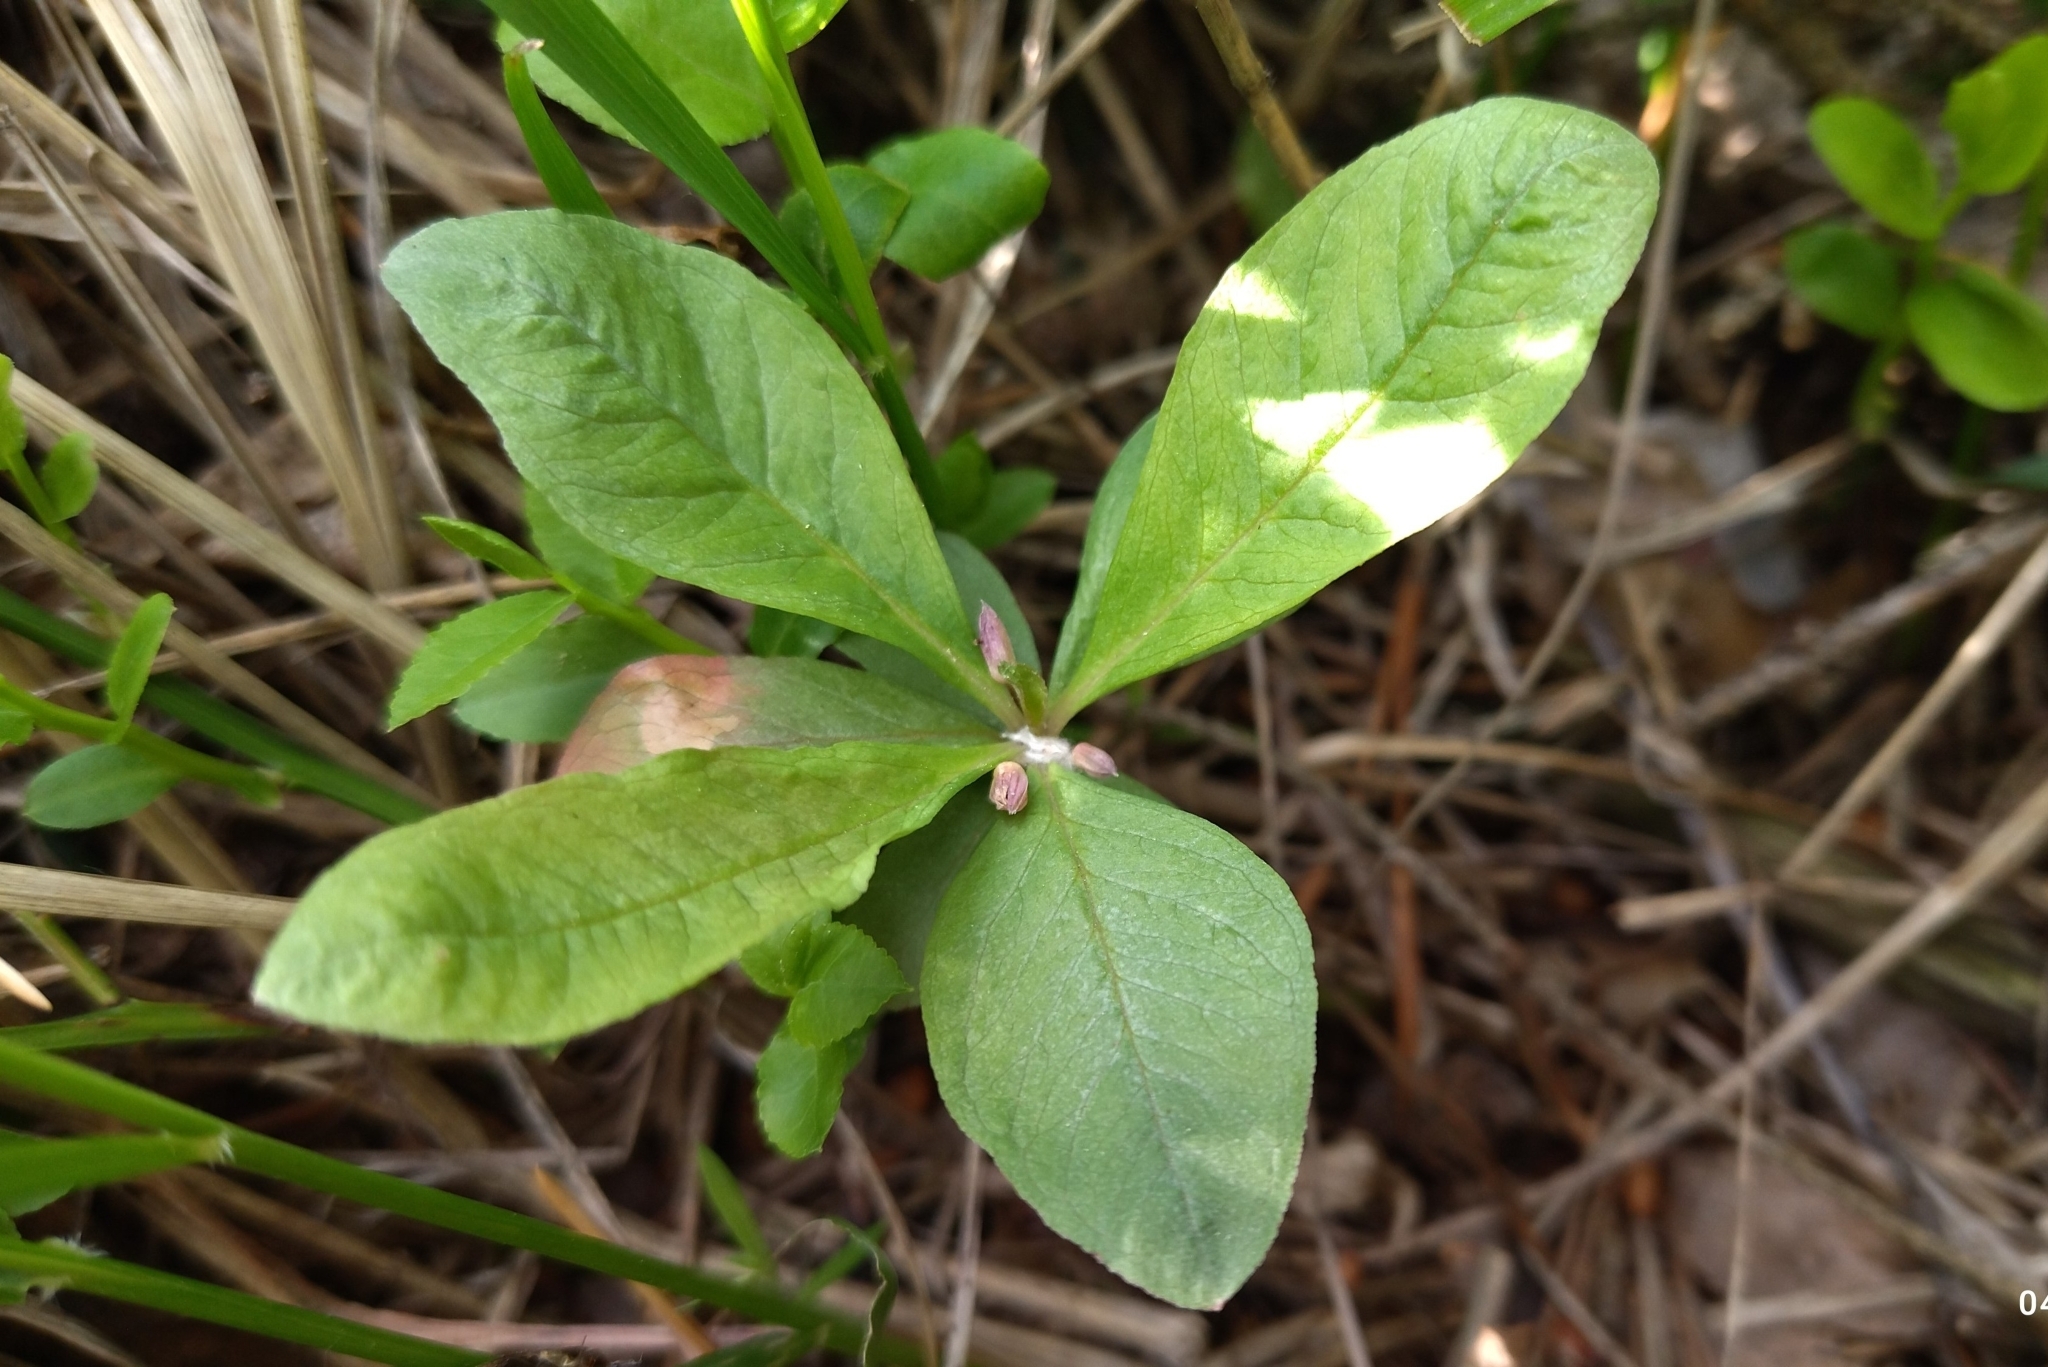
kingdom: Plantae
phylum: Tracheophyta
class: Magnoliopsida
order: Ericales
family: Primulaceae
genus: Lysimachia
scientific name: Lysimachia europaea
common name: Arctic starflower
